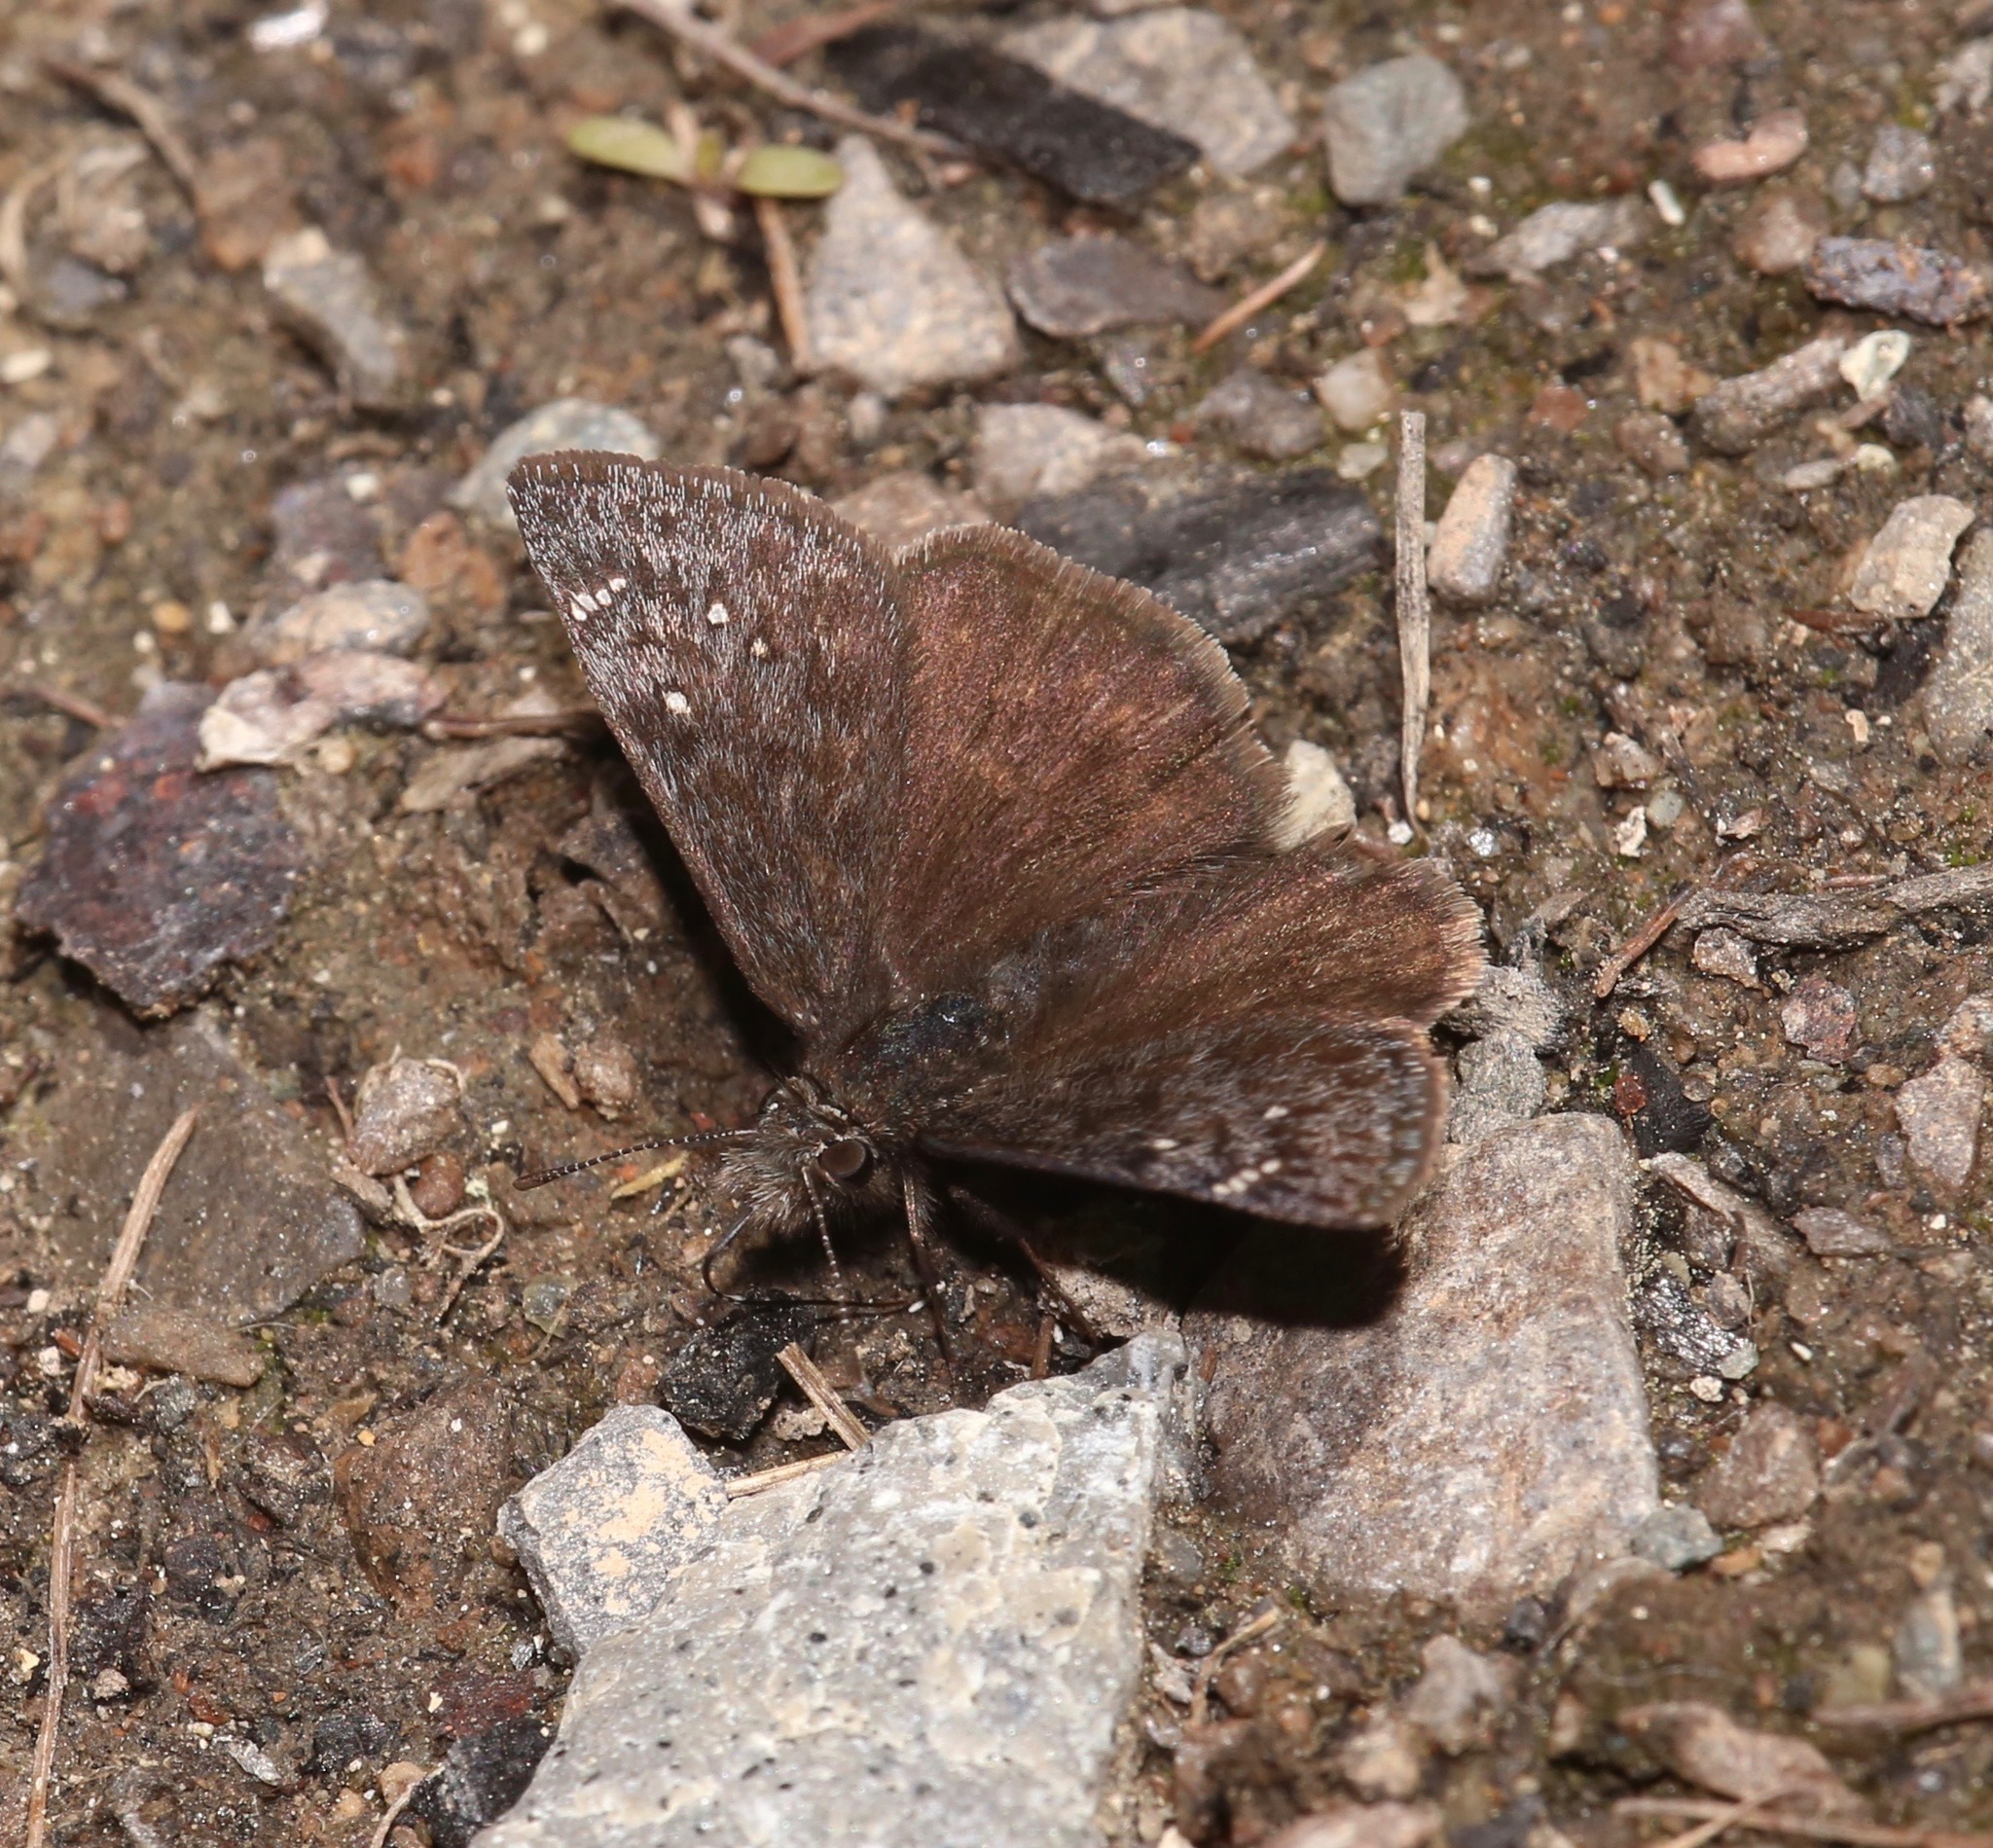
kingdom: Animalia
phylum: Arthropoda
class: Insecta
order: Lepidoptera
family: Hesperiidae
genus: Erynnis
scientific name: Erynnis persius
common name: Persius duskywing
